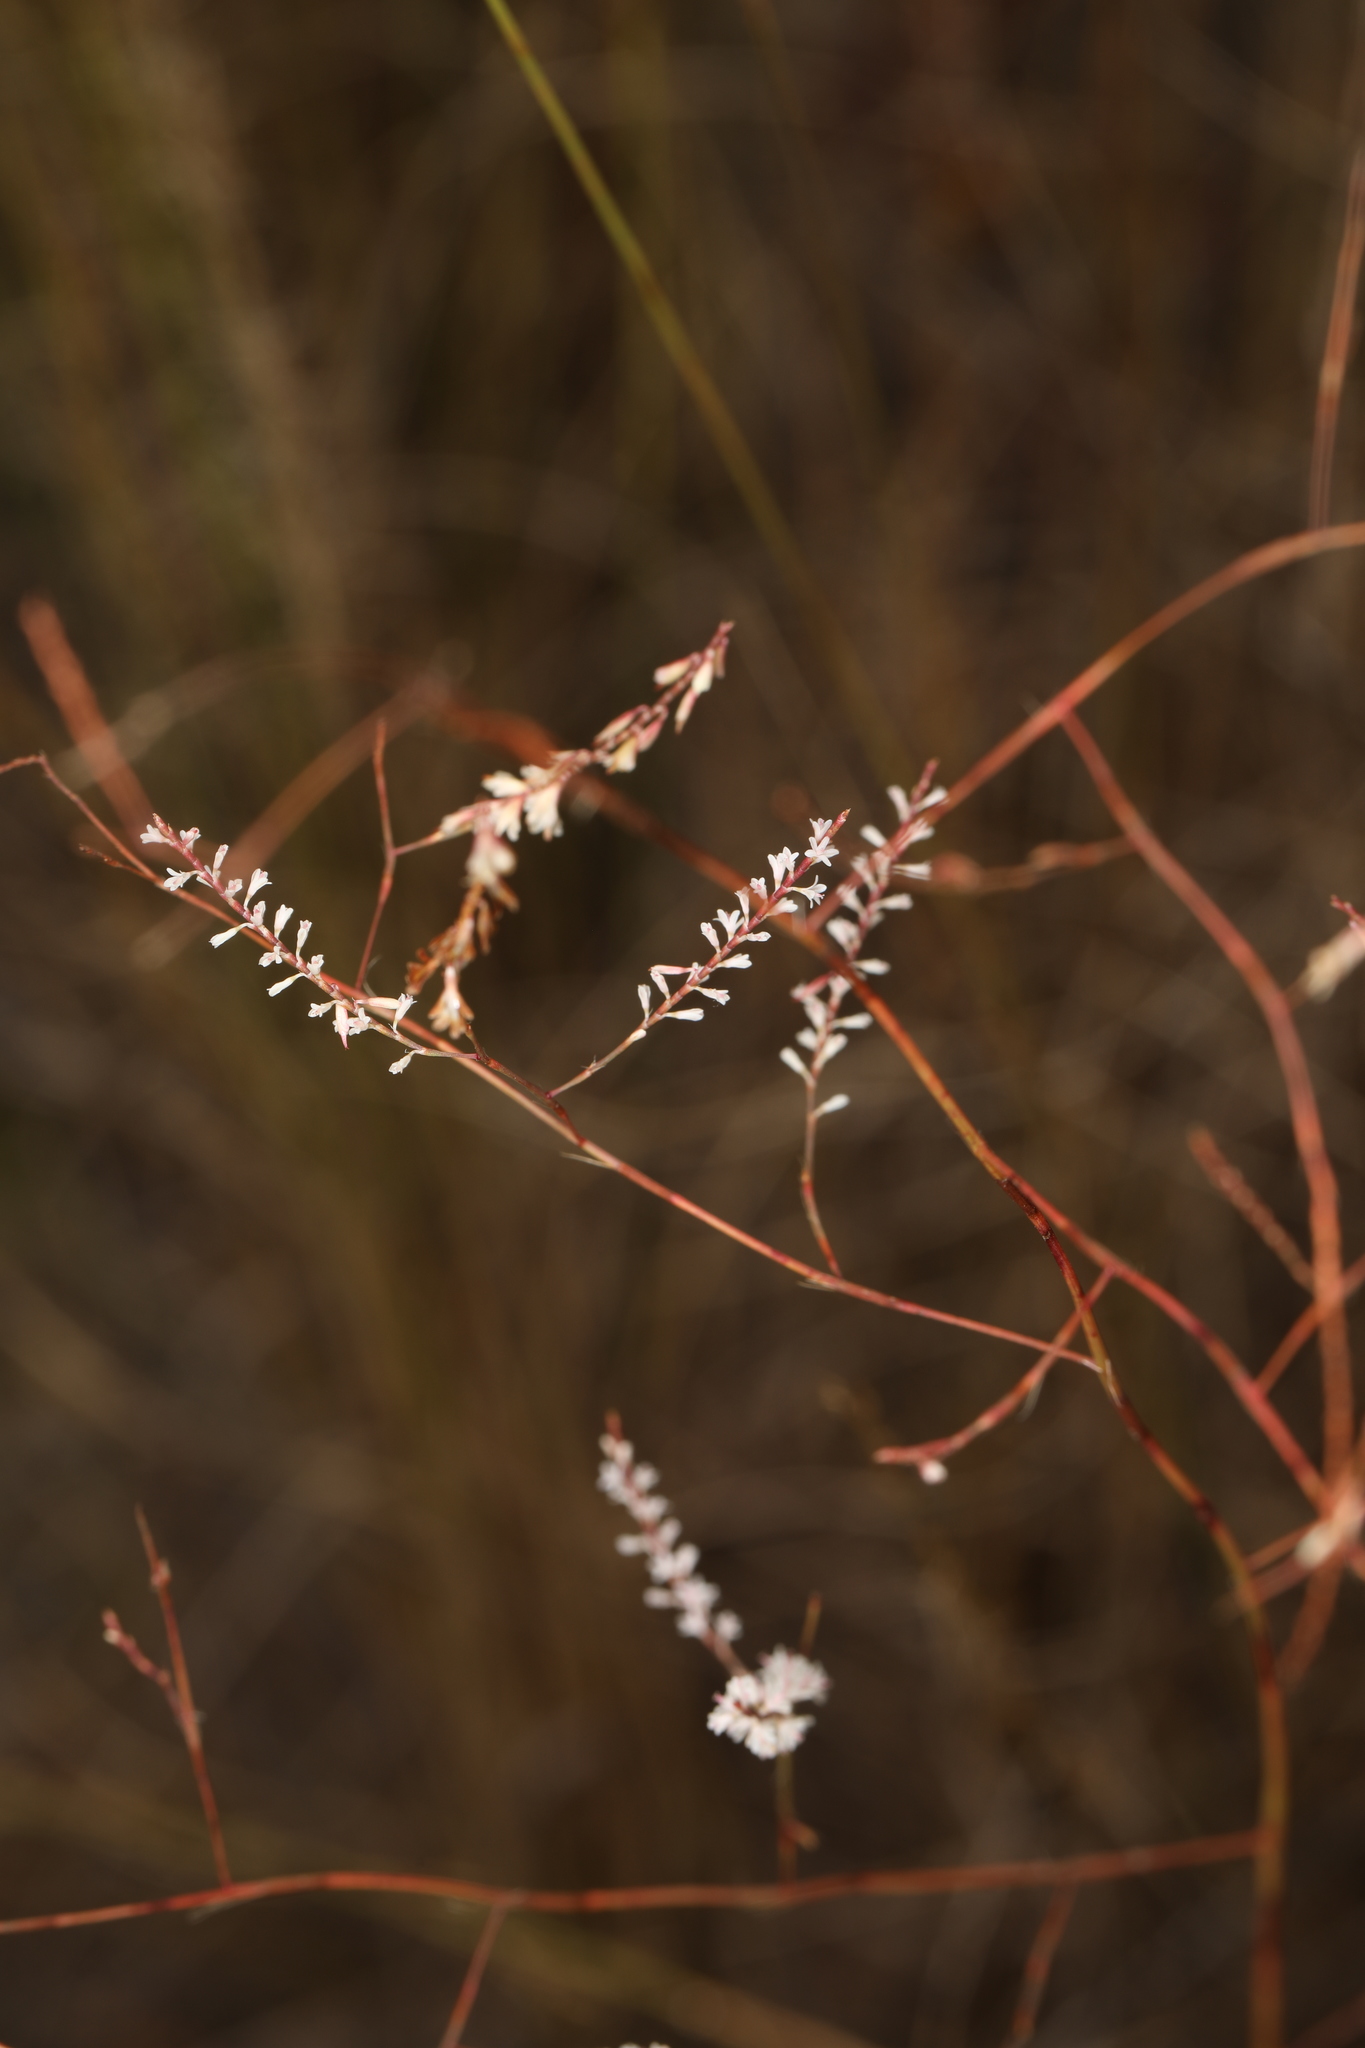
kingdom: Plantae
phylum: Tracheophyta
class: Magnoliopsida
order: Caryophyllales
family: Polygonaceae
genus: Polygonella
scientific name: Polygonella basiramia
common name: Hairy wireweed
